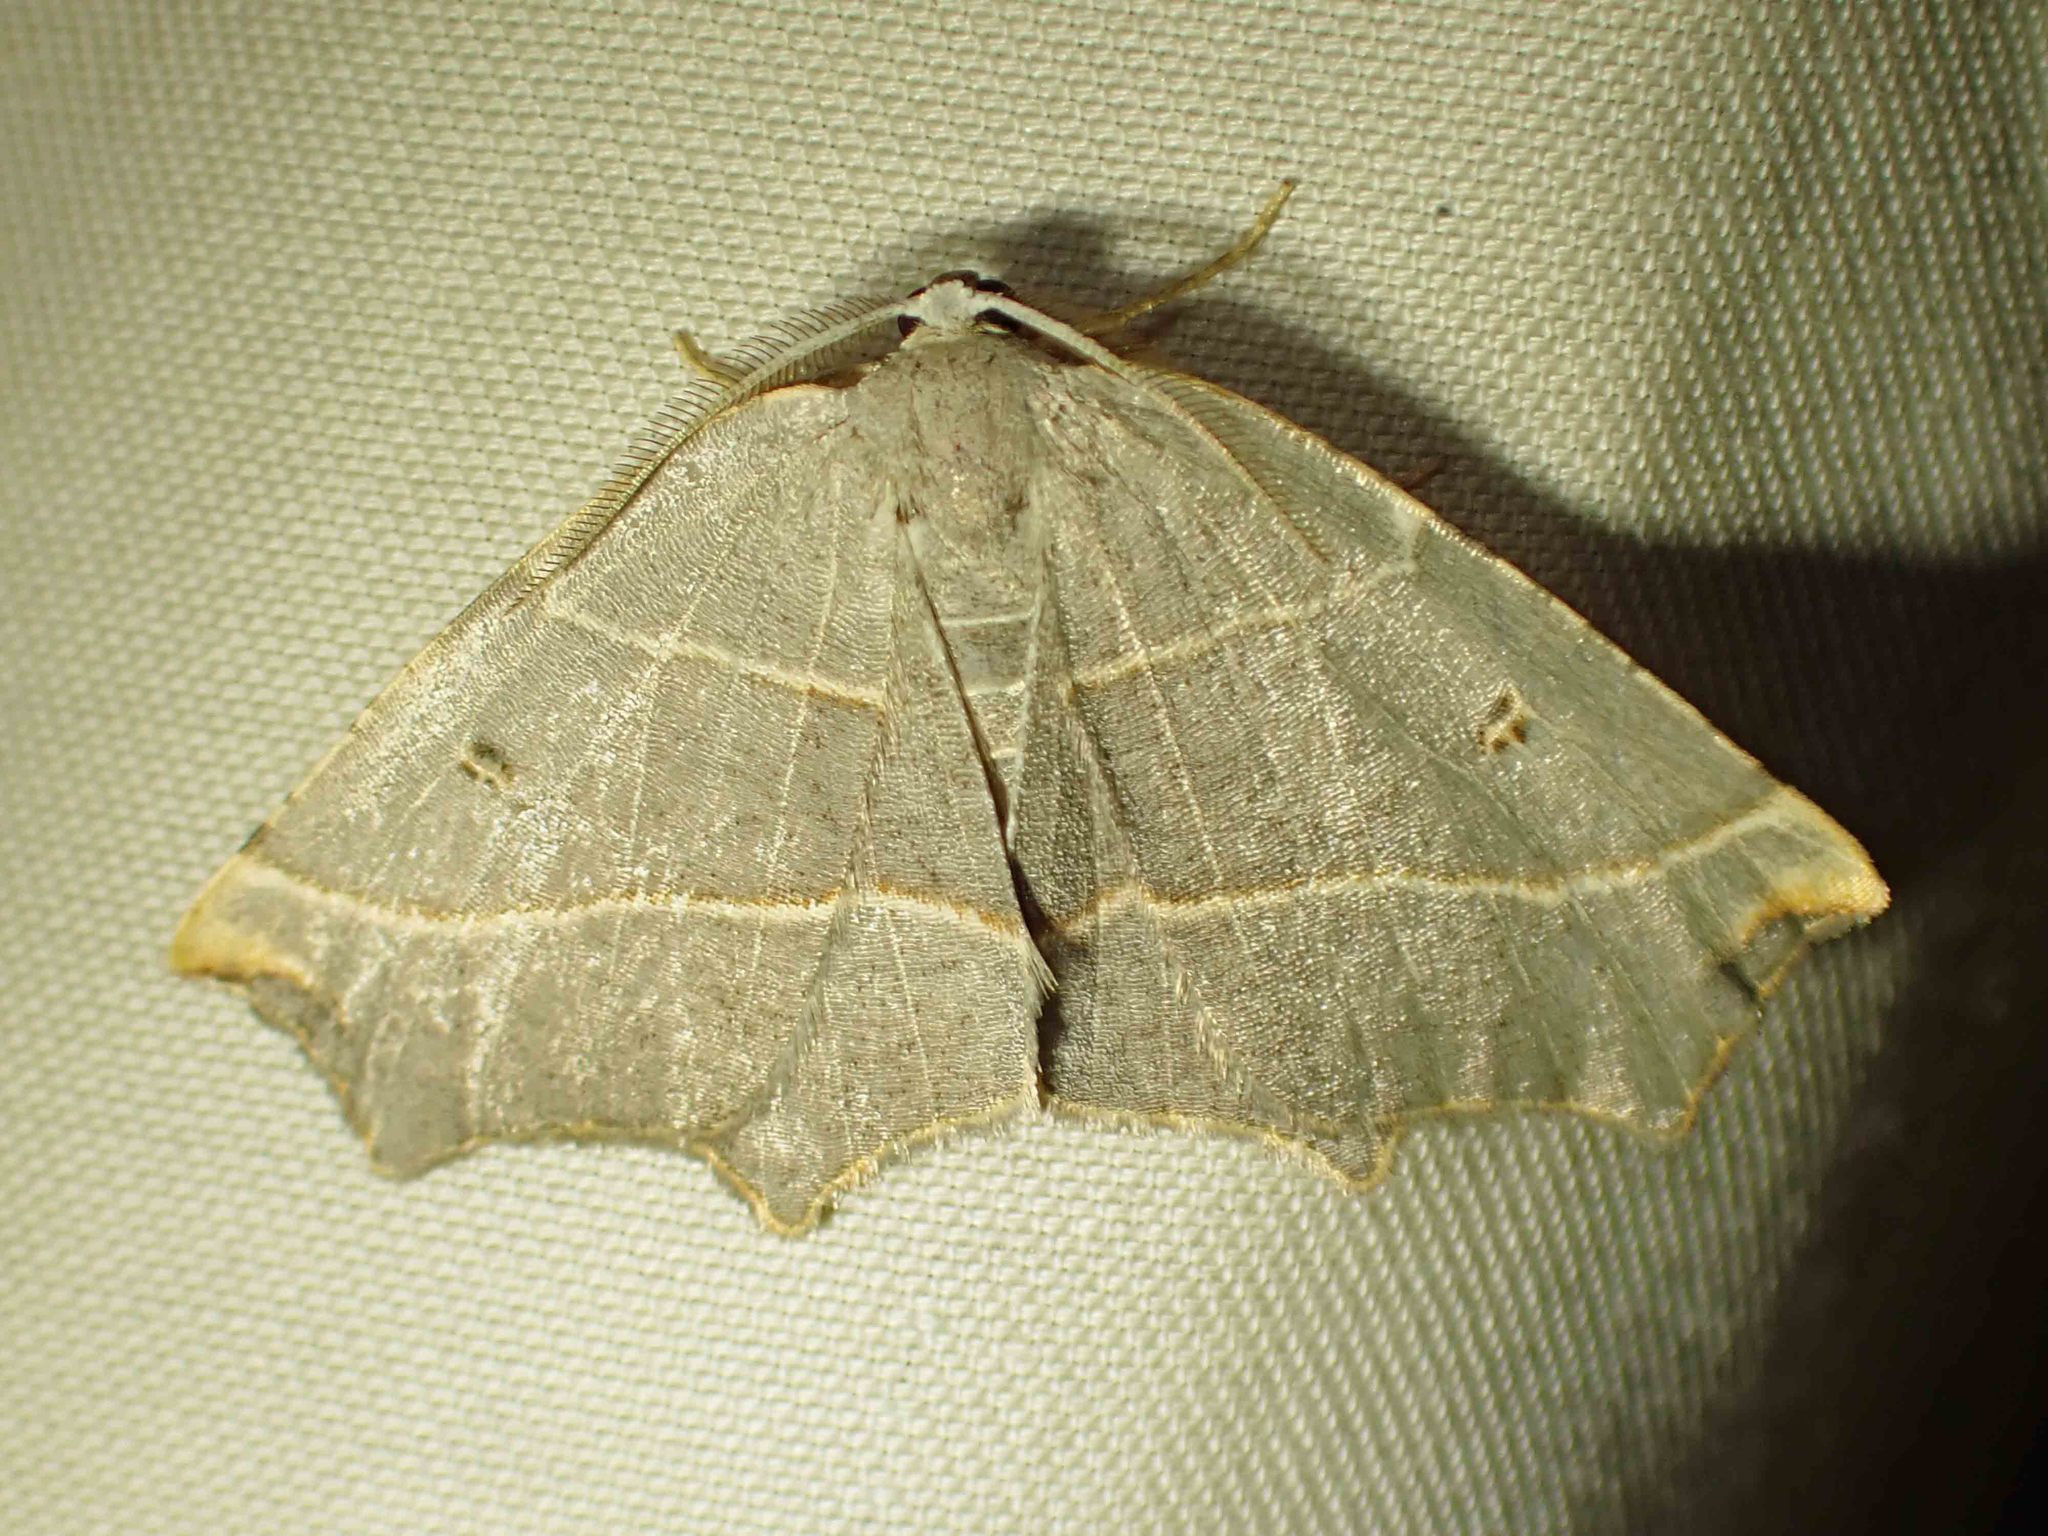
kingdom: Animalia
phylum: Arthropoda
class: Insecta
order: Lepidoptera
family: Geometridae
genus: Metanema
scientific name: Metanema inatomaria
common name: Pale metanema
